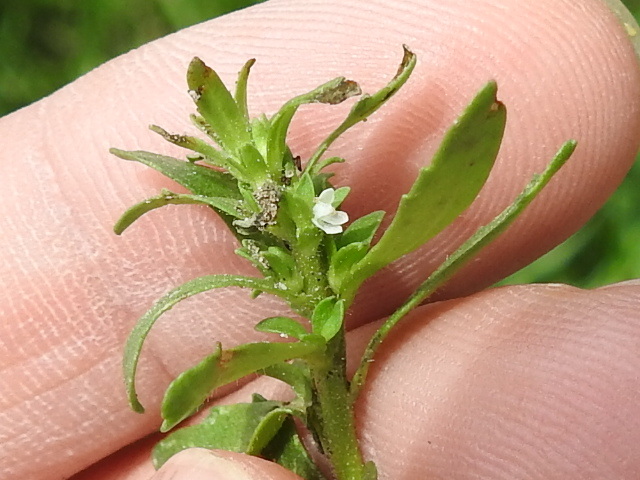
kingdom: Plantae
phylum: Tracheophyta
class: Magnoliopsida
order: Lamiales
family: Plantaginaceae
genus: Veronica
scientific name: Veronica peregrina
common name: Neckweed
